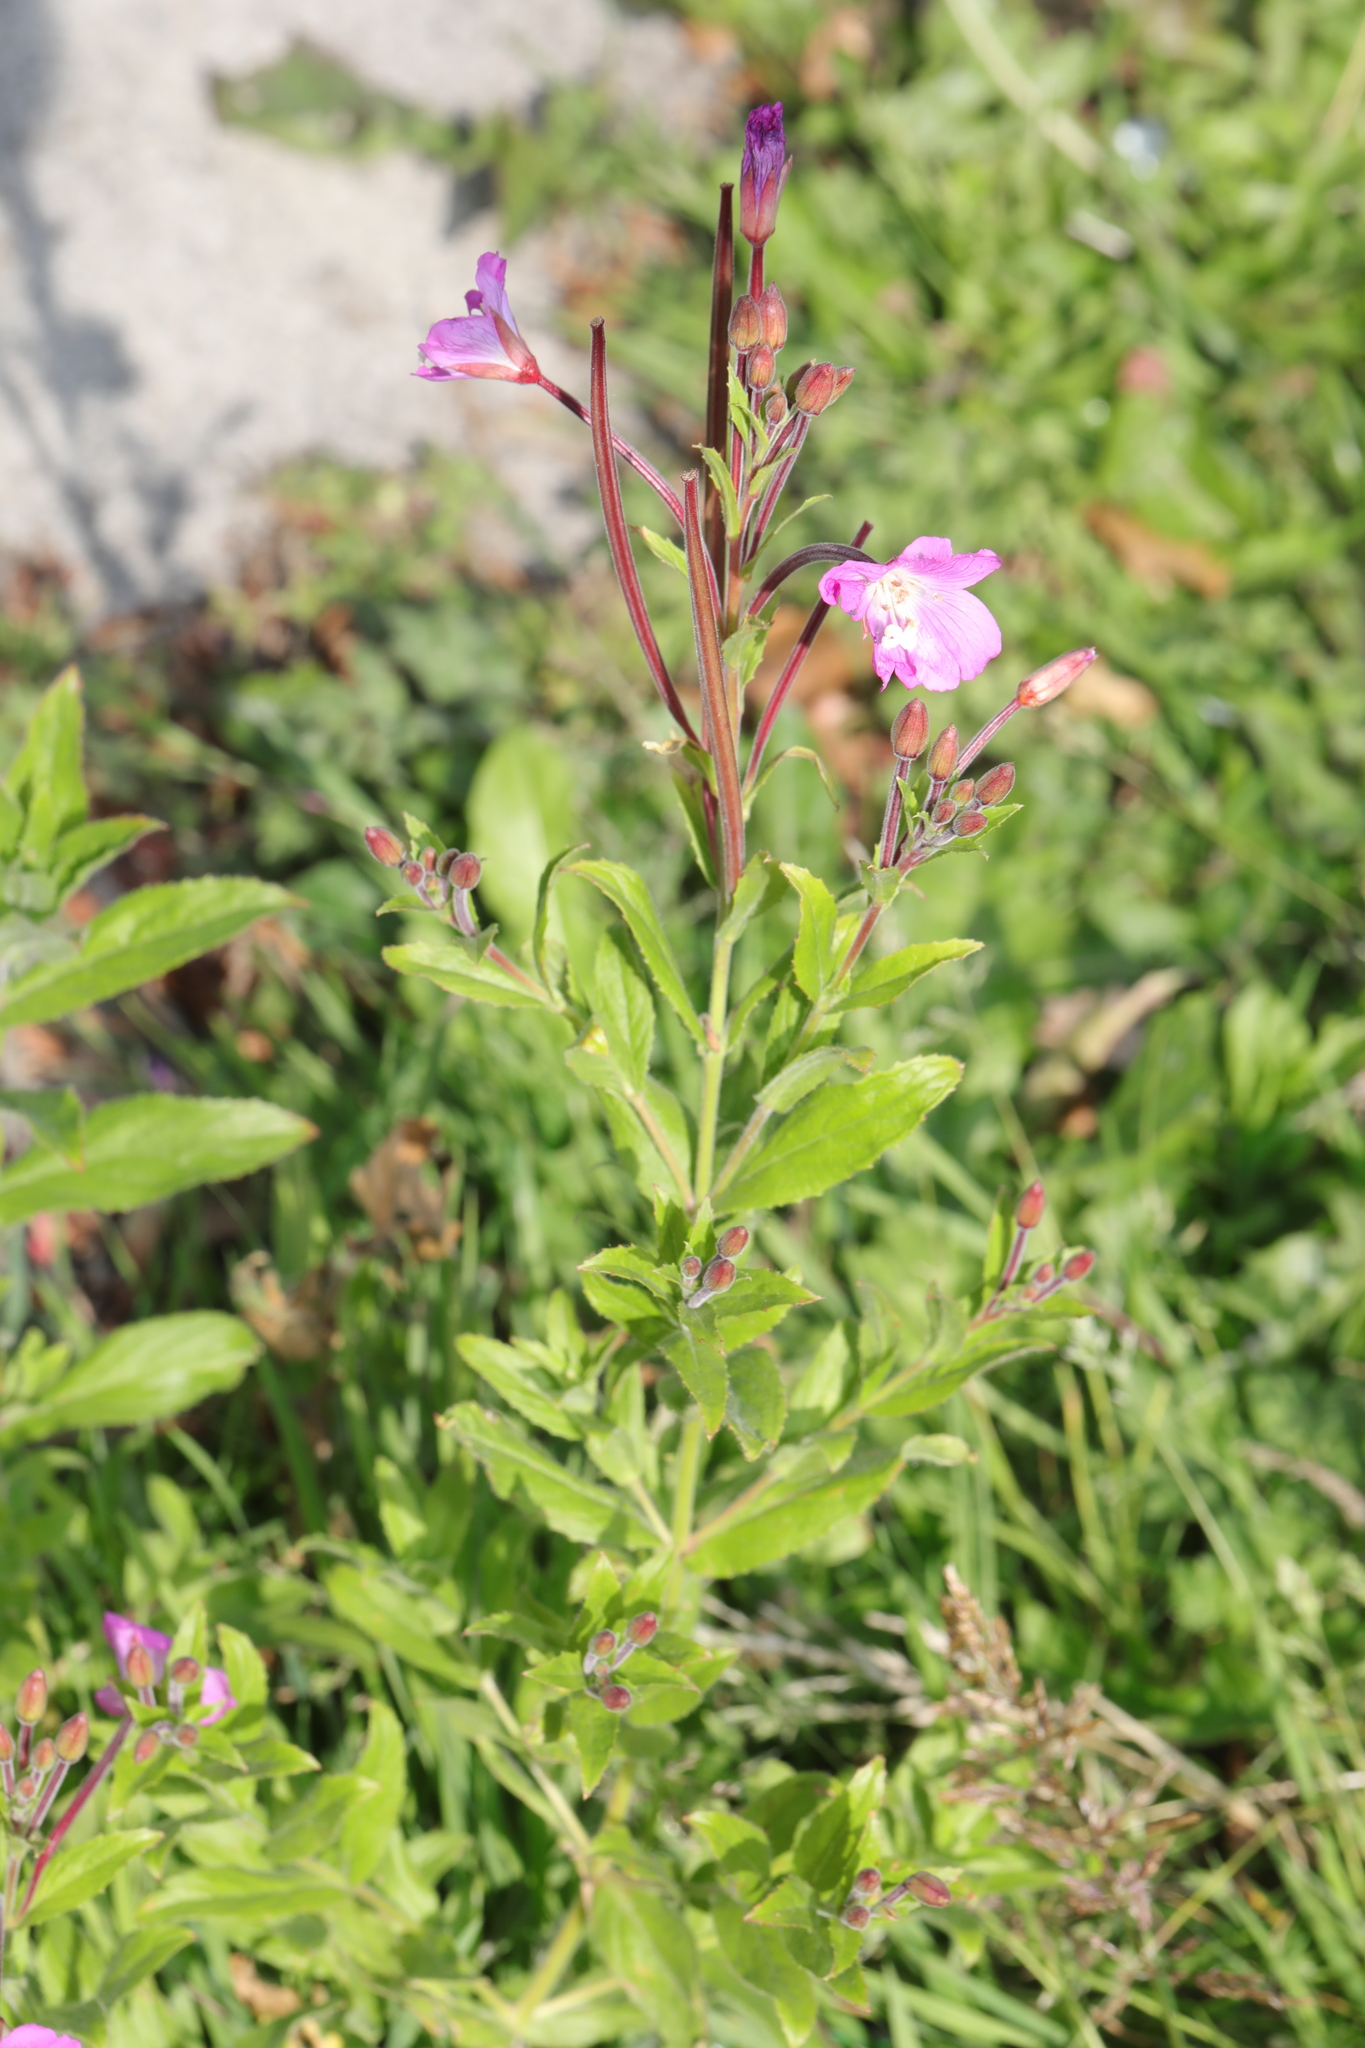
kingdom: Plantae
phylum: Tracheophyta
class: Magnoliopsida
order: Myrtales
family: Onagraceae
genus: Epilobium
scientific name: Epilobium hirsutum
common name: Great willowherb
